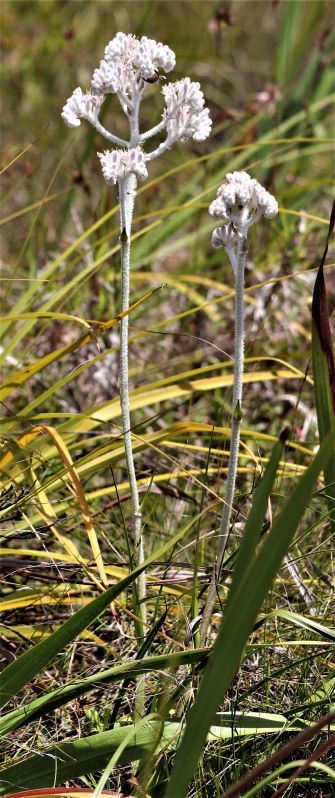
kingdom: Plantae
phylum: Tracheophyta
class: Liliopsida
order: Asparagales
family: Lanariaceae
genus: Lanaria
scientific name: Lanaria lanata
